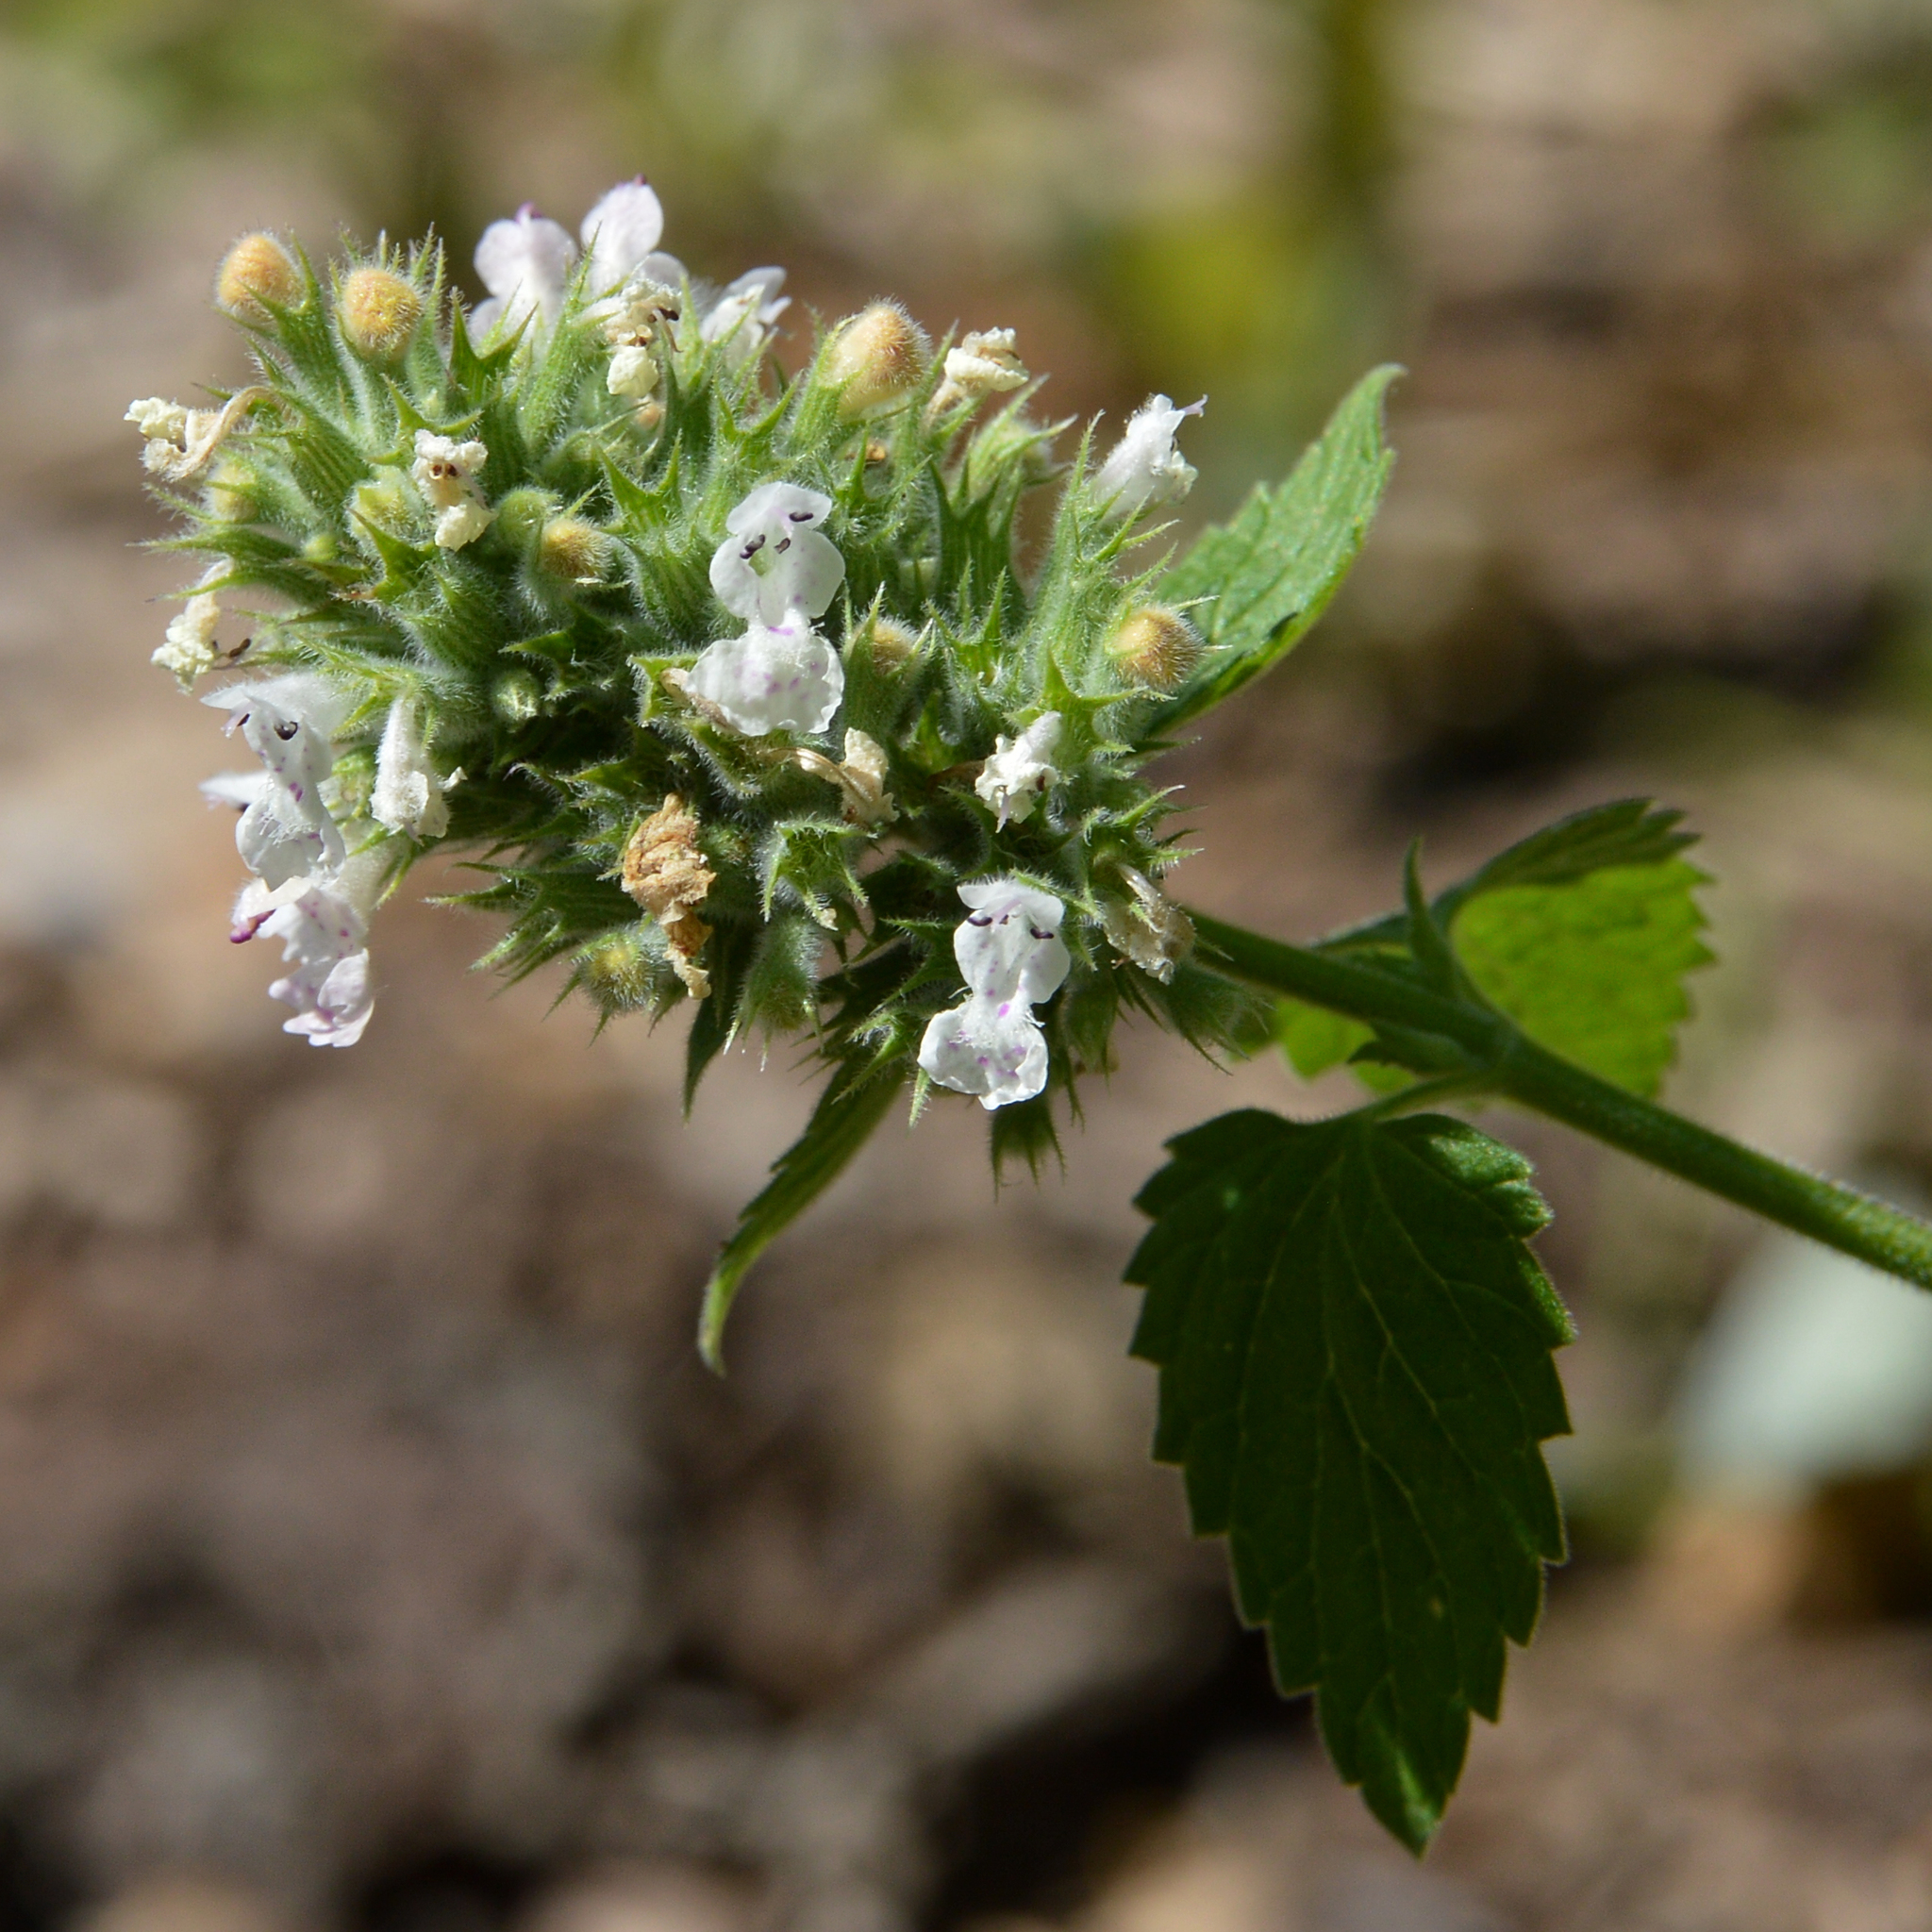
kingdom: Plantae
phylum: Tracheophyta
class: Magnoliopsida
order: Lamiales
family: Lamiaceae
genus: Nepeta
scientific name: Nepeta cataria
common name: Catnip
